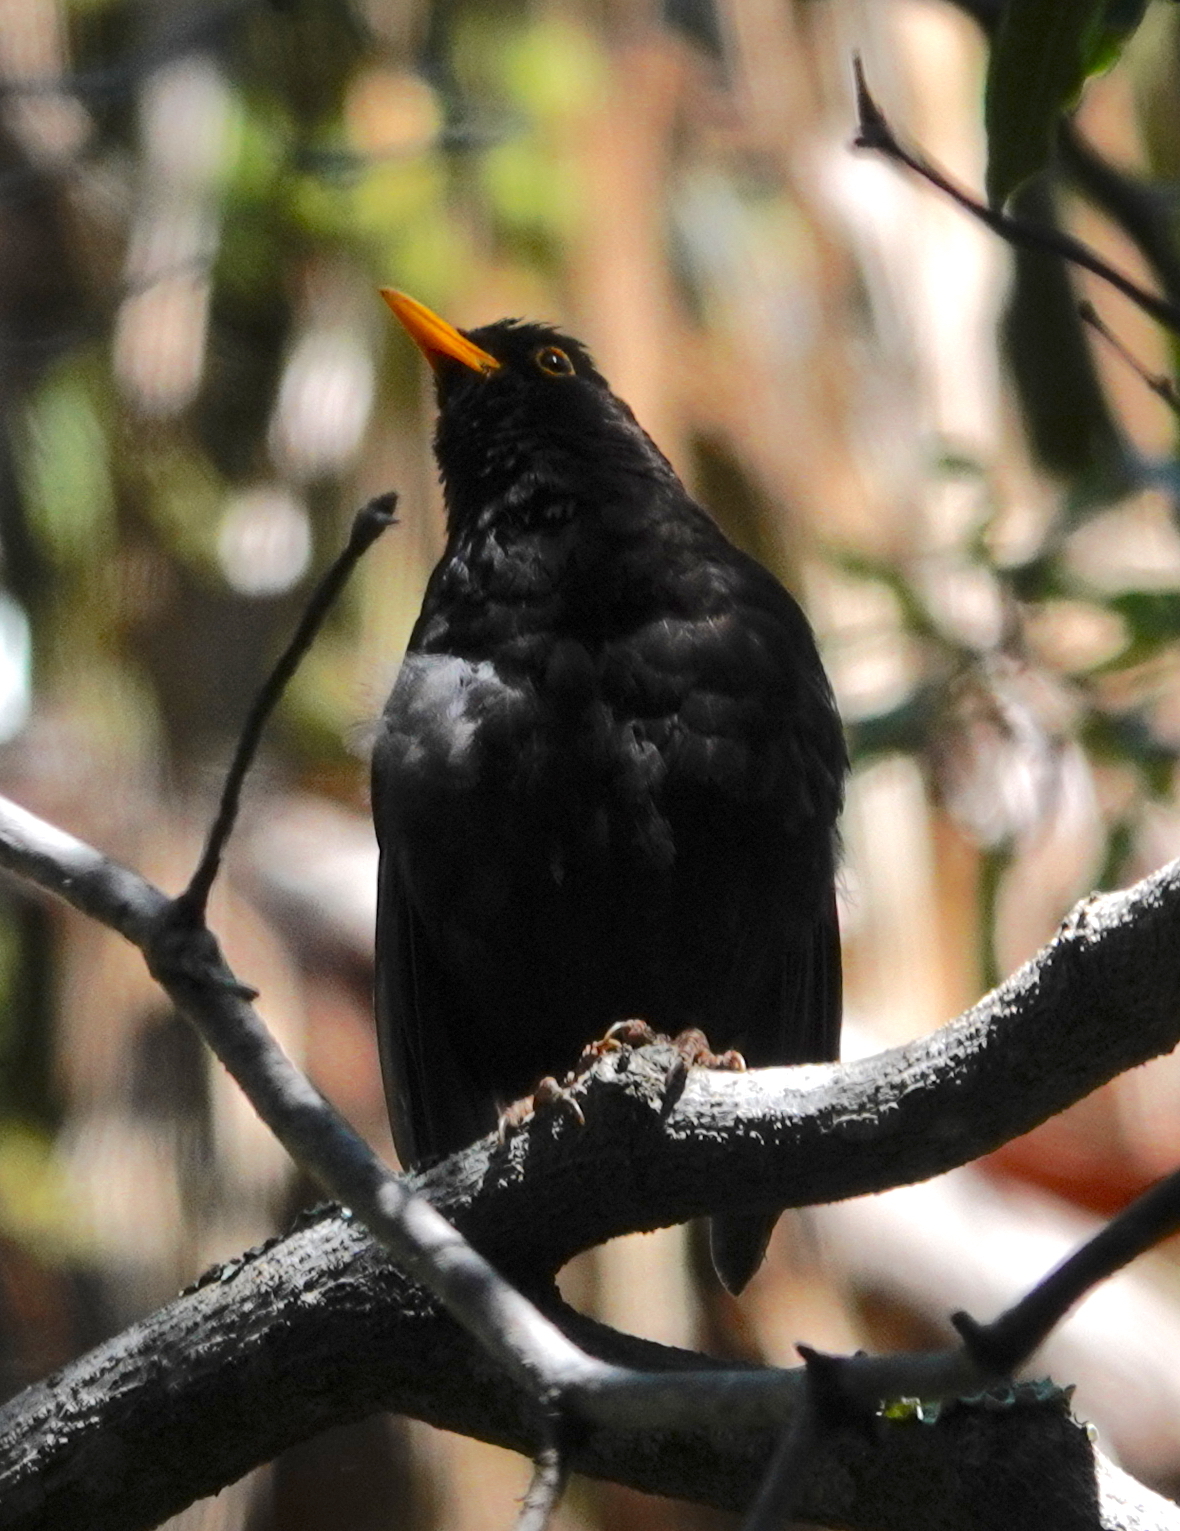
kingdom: Animalia
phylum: Chordata
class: Aves
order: Passeriformes
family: Turdidae
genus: Turdus
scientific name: Turdus merula
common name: Common blackbird
